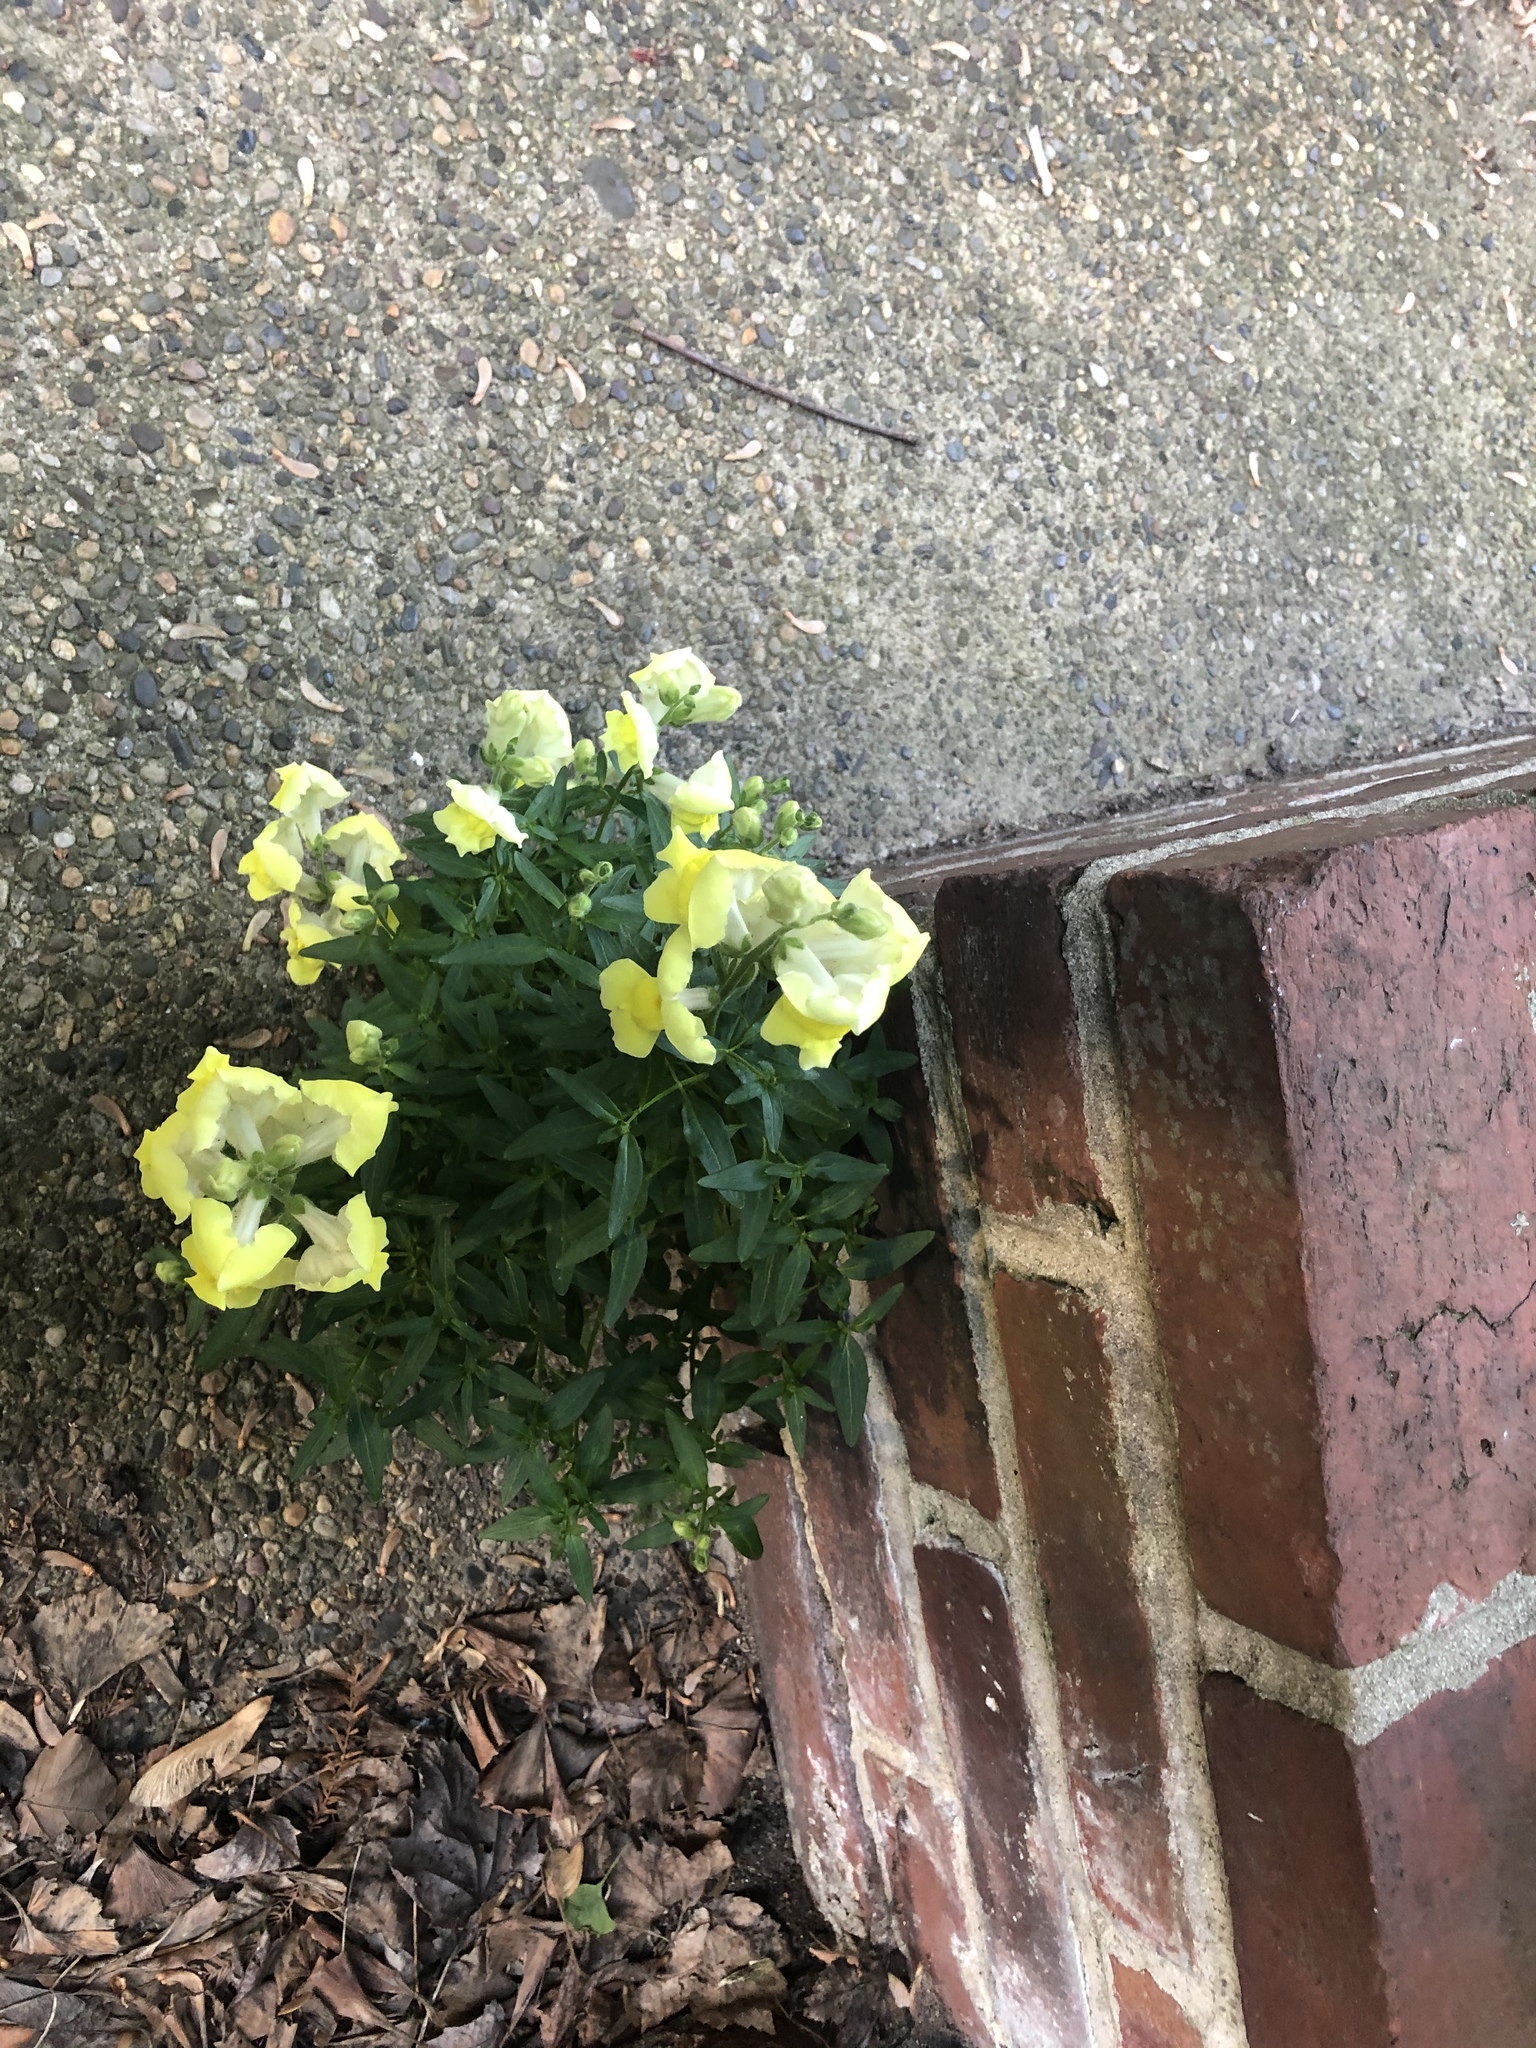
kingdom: Plantae
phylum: Tracheophyta
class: Magnoliopsida
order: Lamiales
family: Plantaginaceae
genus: Antirrhinum
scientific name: Antirrhinum majus
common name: Snapdragon
